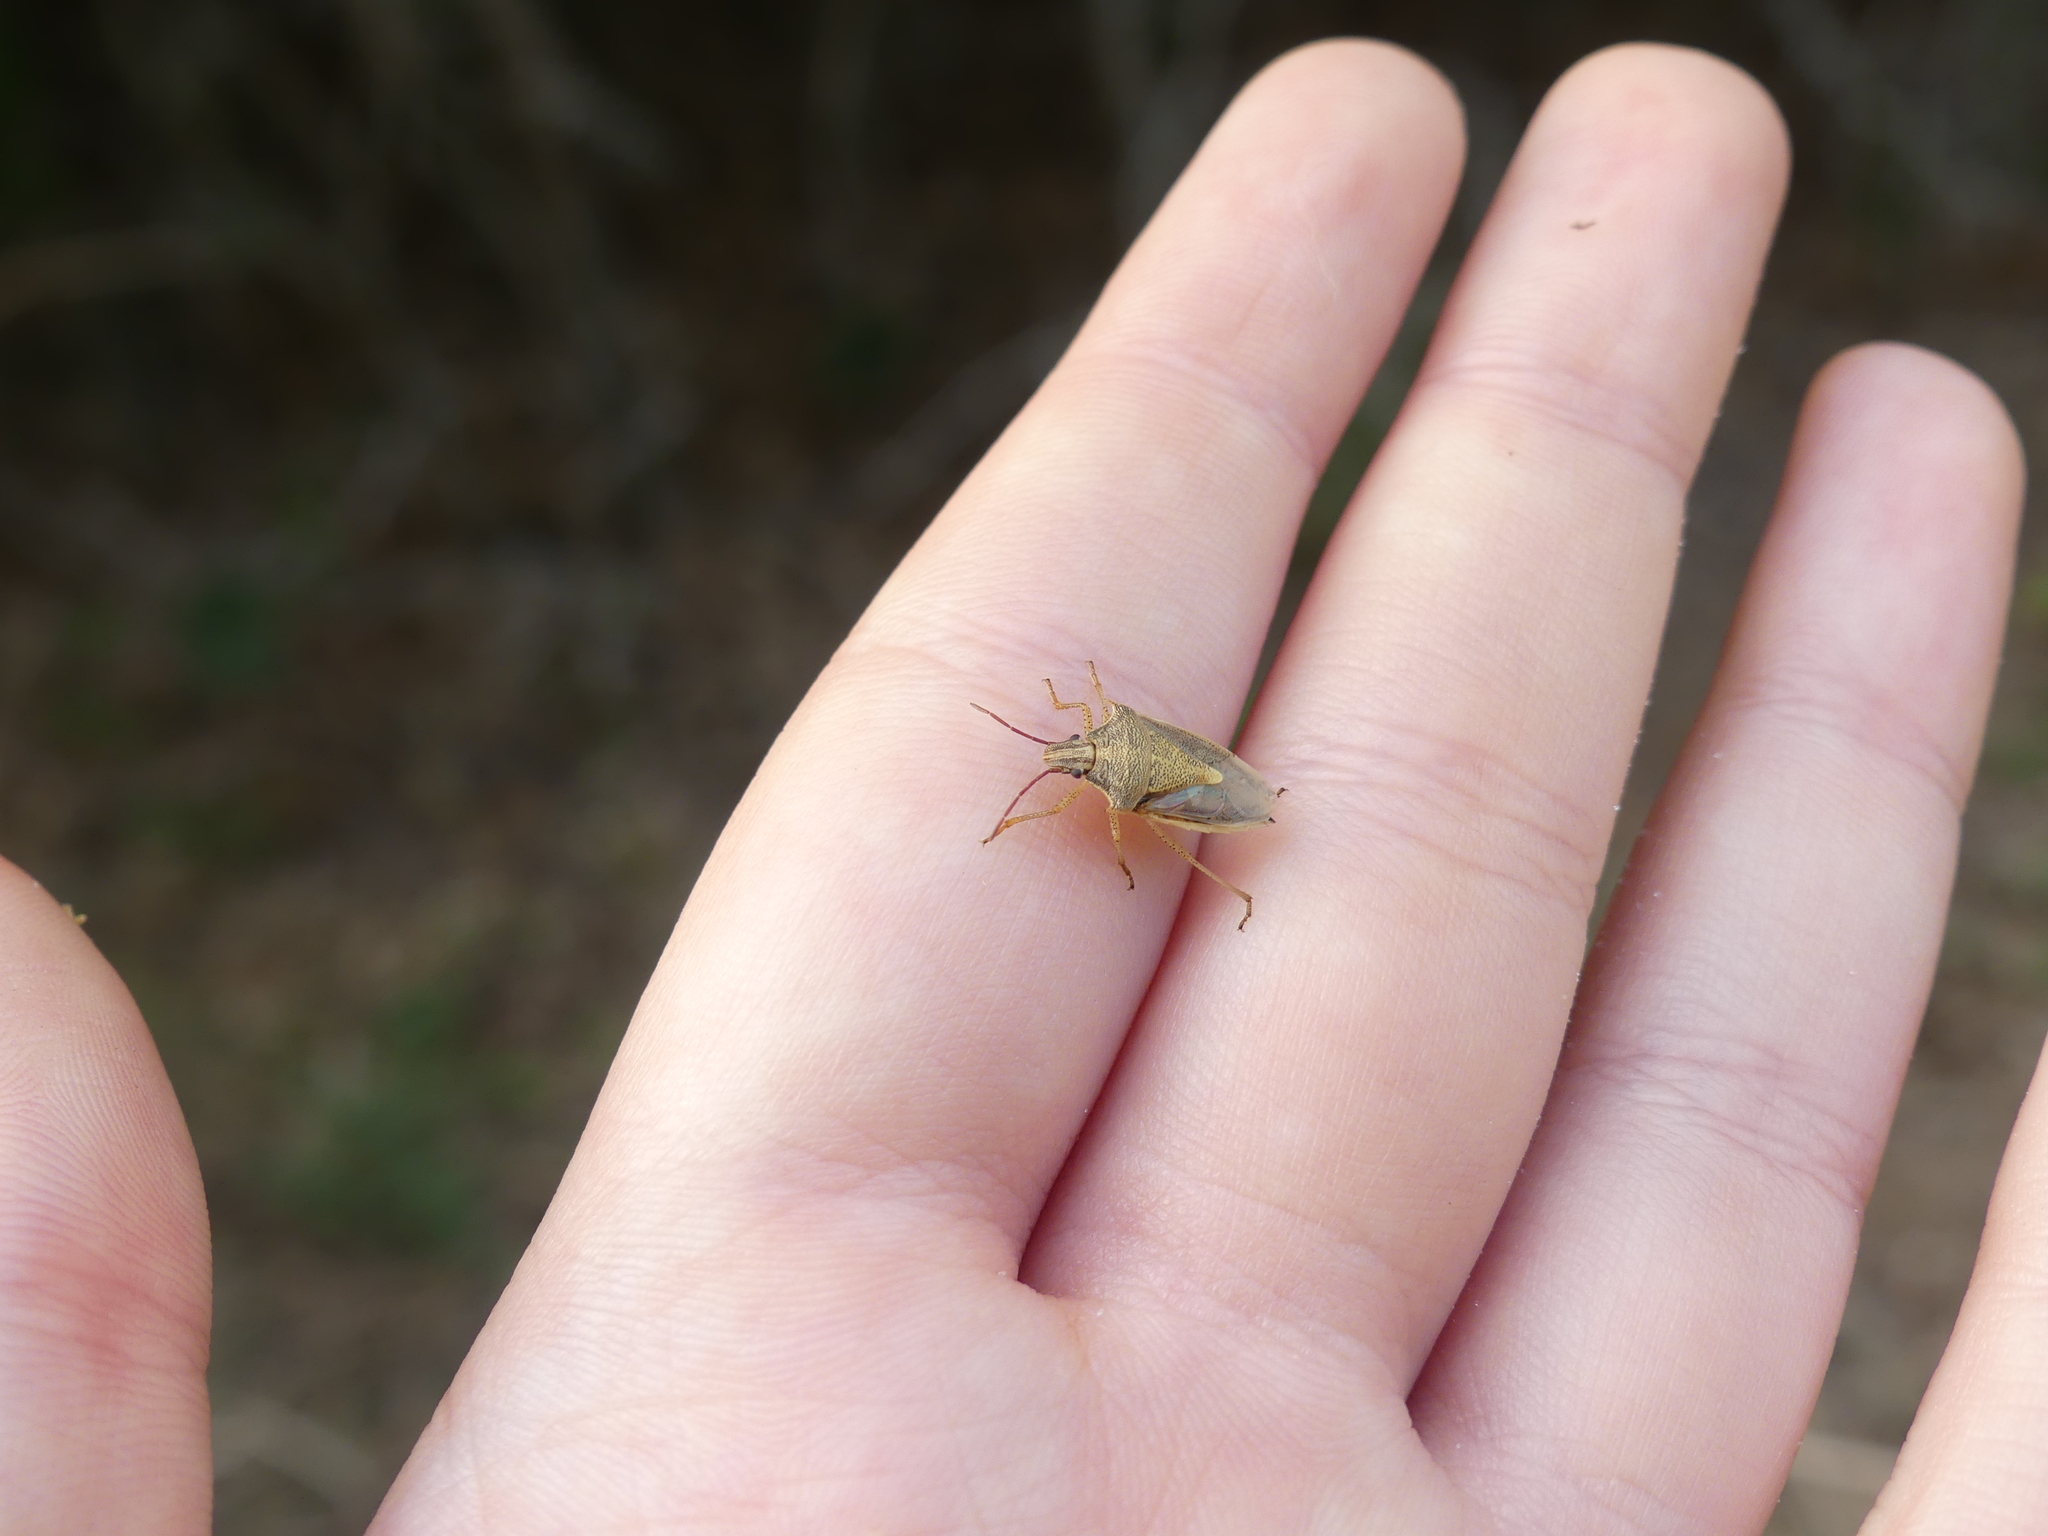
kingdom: Animalia
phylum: Arthropoda
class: Insecta
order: Hemiptera
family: Pentatomidae
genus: Oebalus
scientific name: Oebalus pugnax
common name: Rice stink bug
